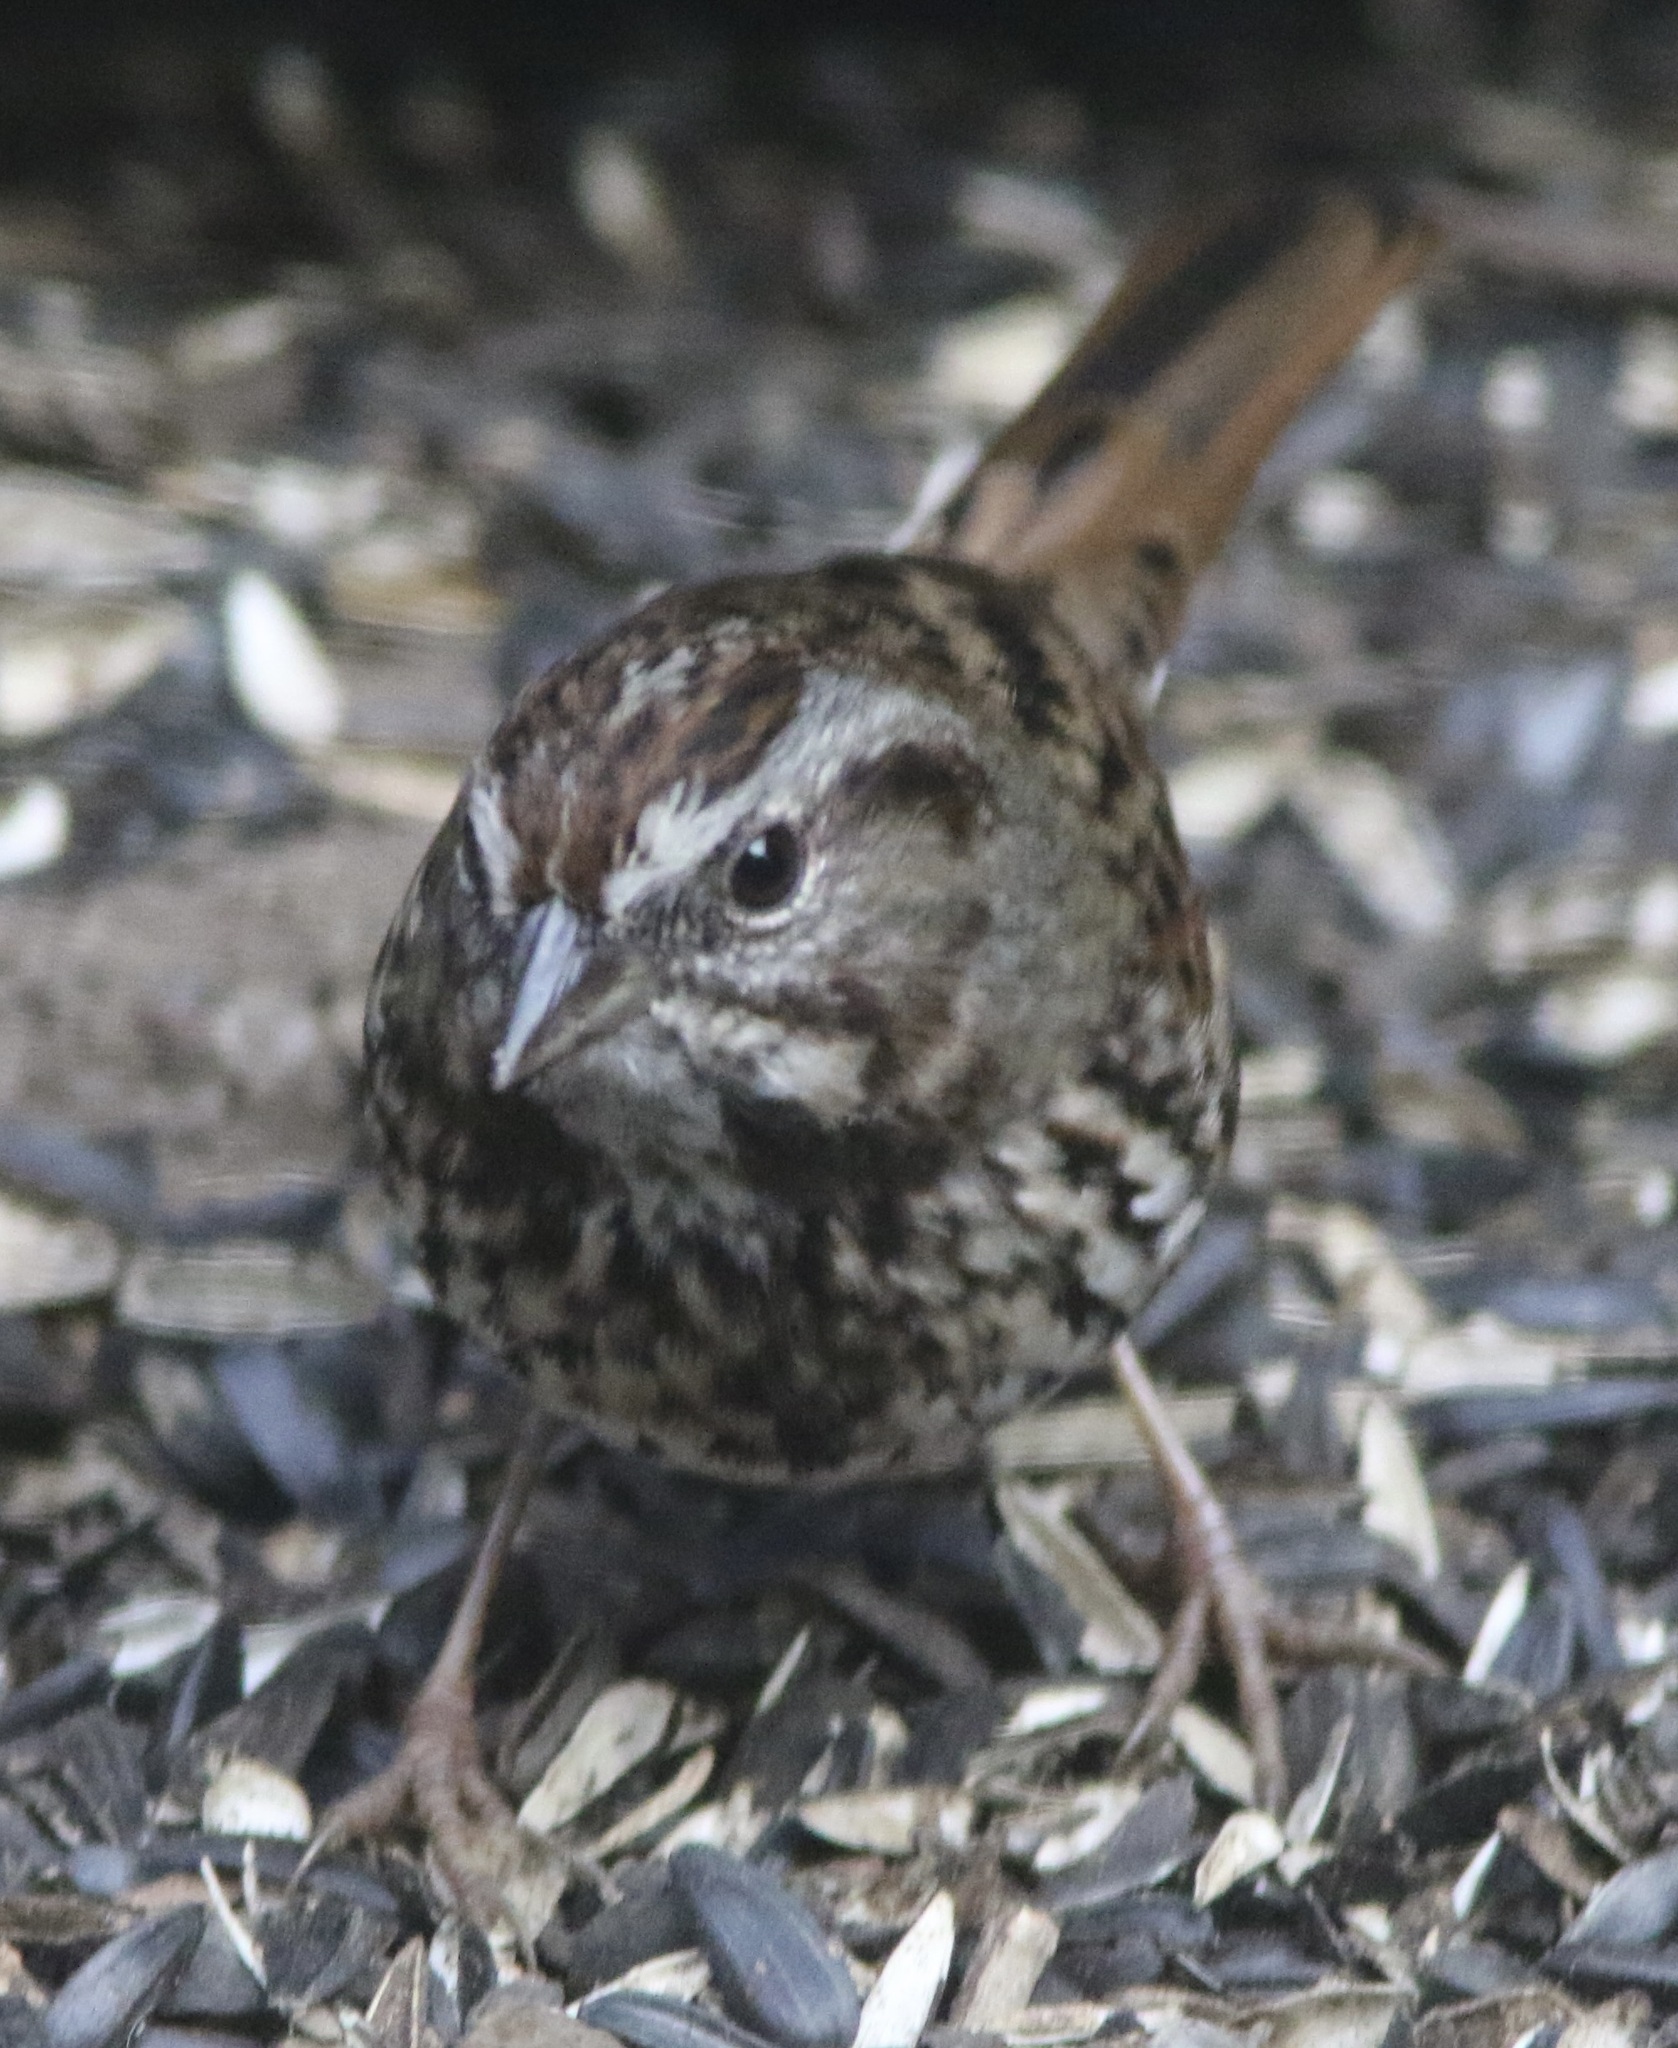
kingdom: Animalia
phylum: Chordata
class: Aves
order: Passeriformes
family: Passerellidae
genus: Melospiza
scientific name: Melospiza melodia
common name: Song sparrow
